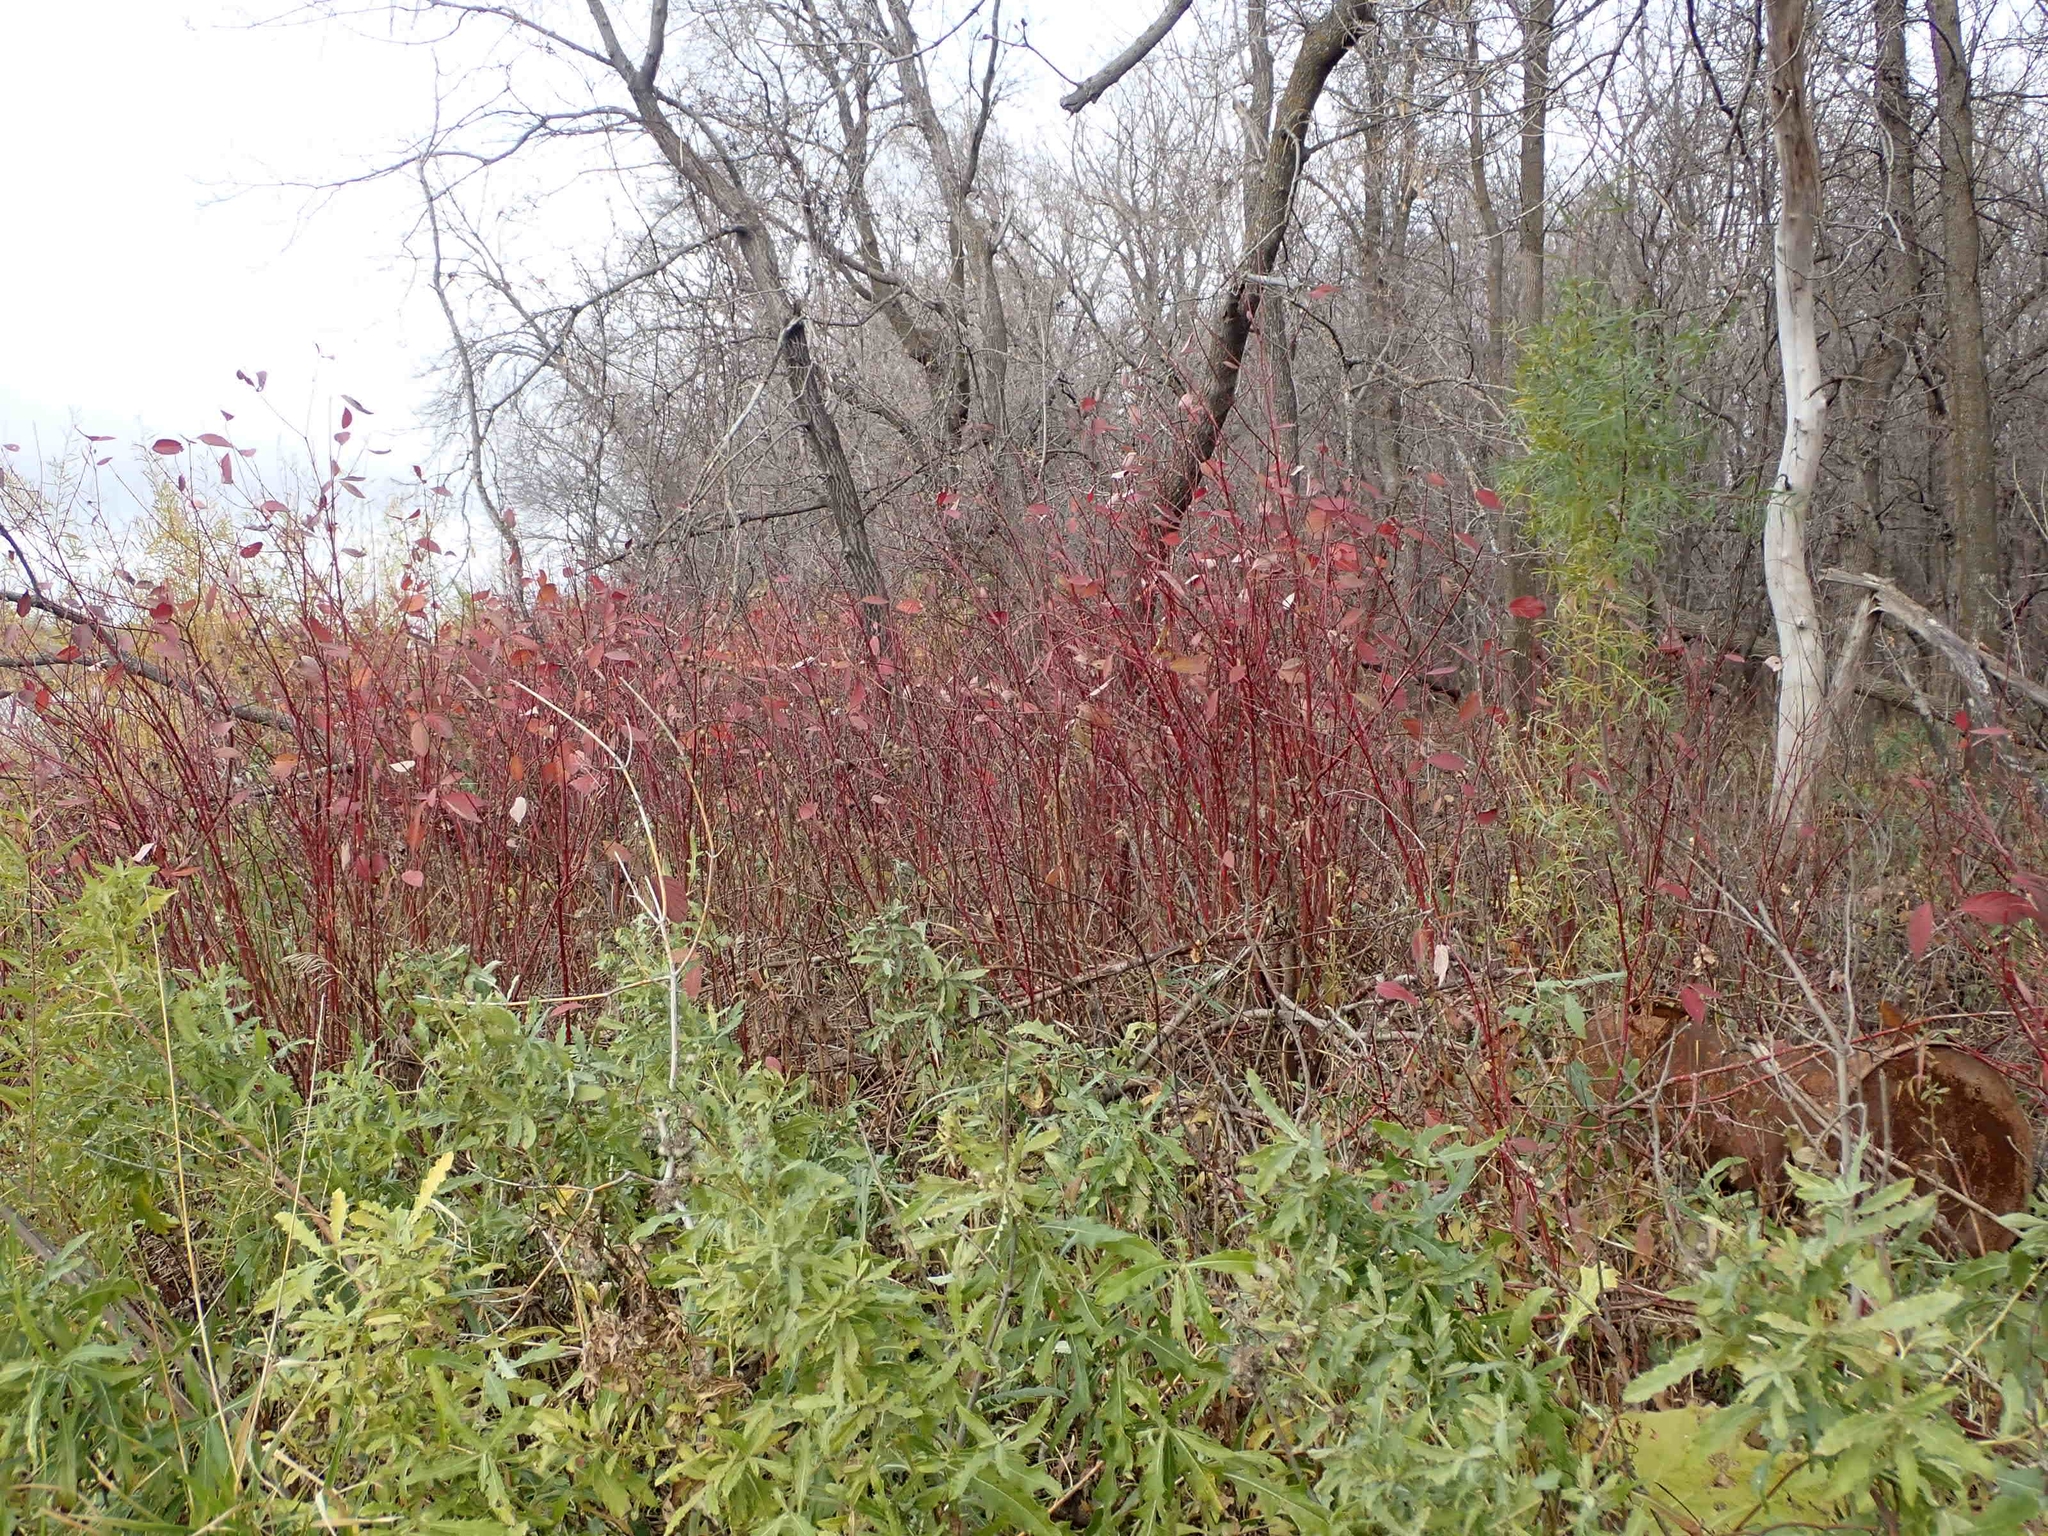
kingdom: Plantae
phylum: Tracheophyta
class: Magnoliopsida
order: Cornales
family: Cornaceae
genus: Cornus
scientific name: Cornus sericea
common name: Red-osier dogwood
